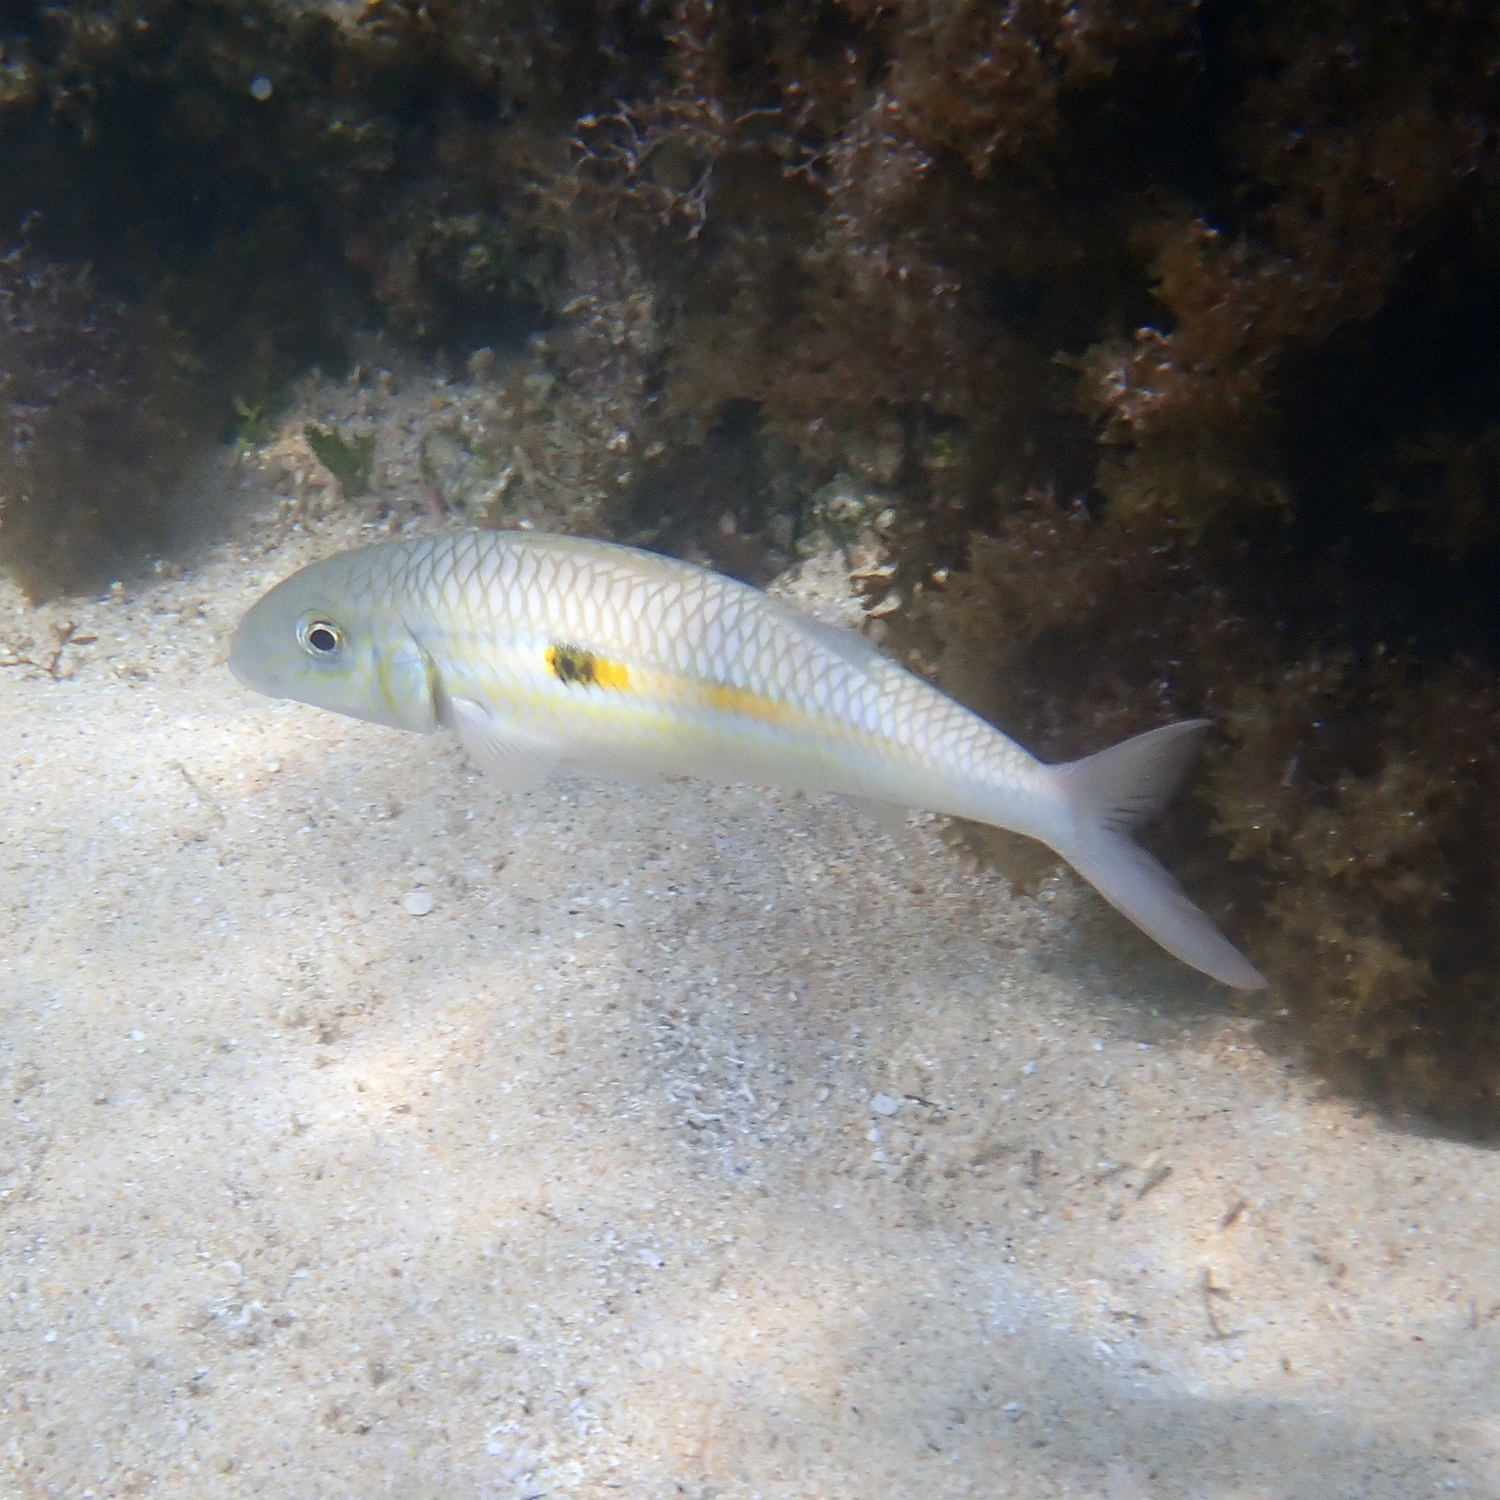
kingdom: Animalia
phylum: Chordata
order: Perciformes
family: Mullidae
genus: Mulloidichthys
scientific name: Mulloidichthys flavolineatus
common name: Yellowstripe goatfish
